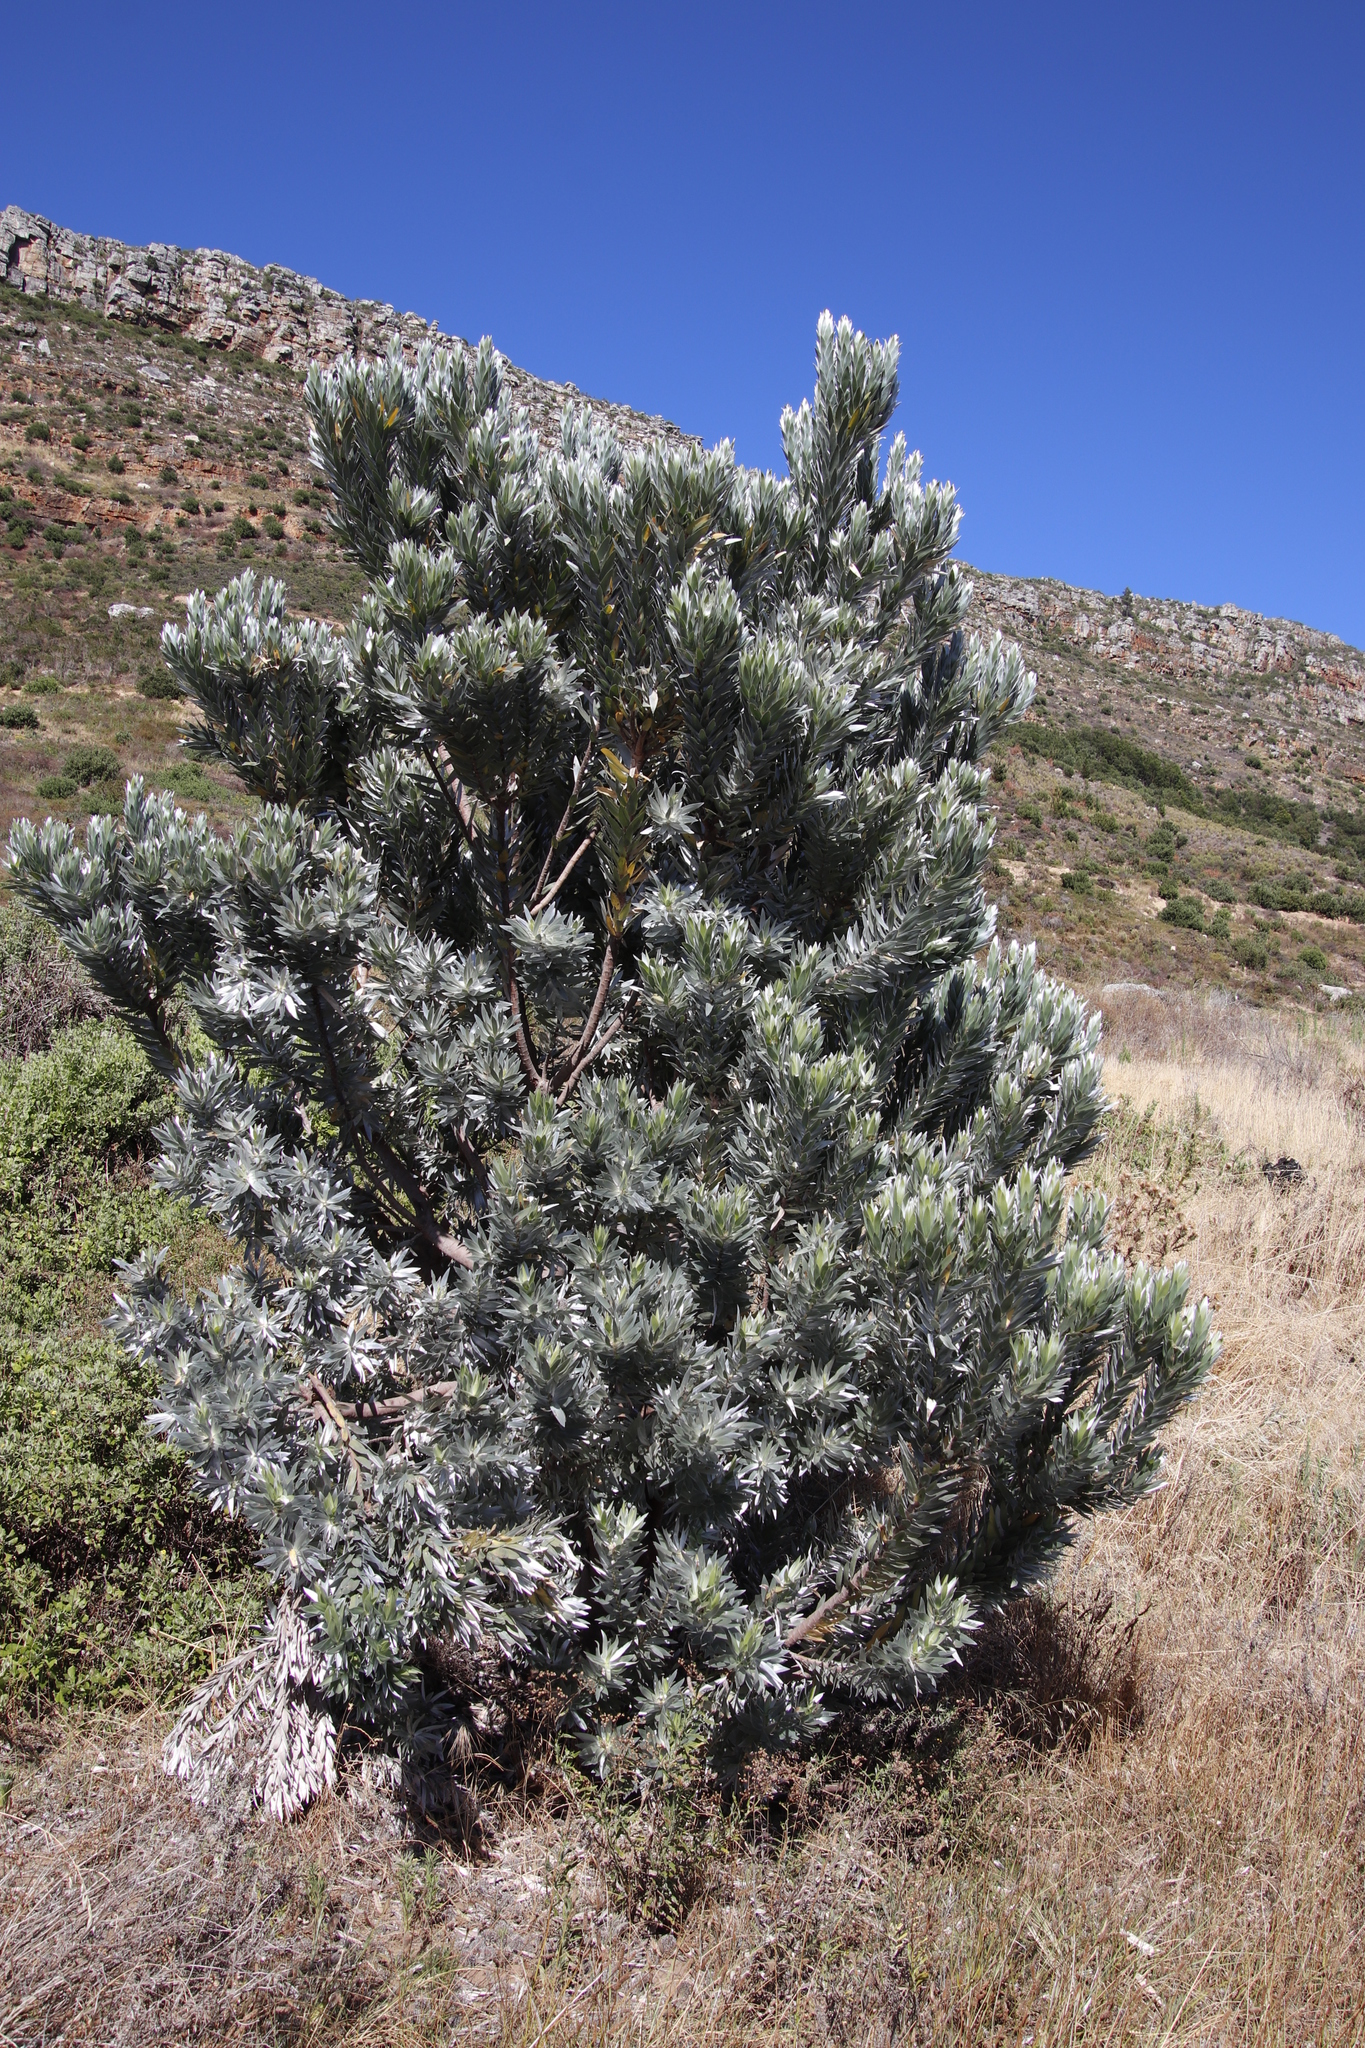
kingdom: Plantae
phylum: Tracheophyta
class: Magnoliopsida
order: Proteales
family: Proteaceae
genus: Leucadendron
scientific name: Leucadendron argenteum
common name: Cape silver tree
